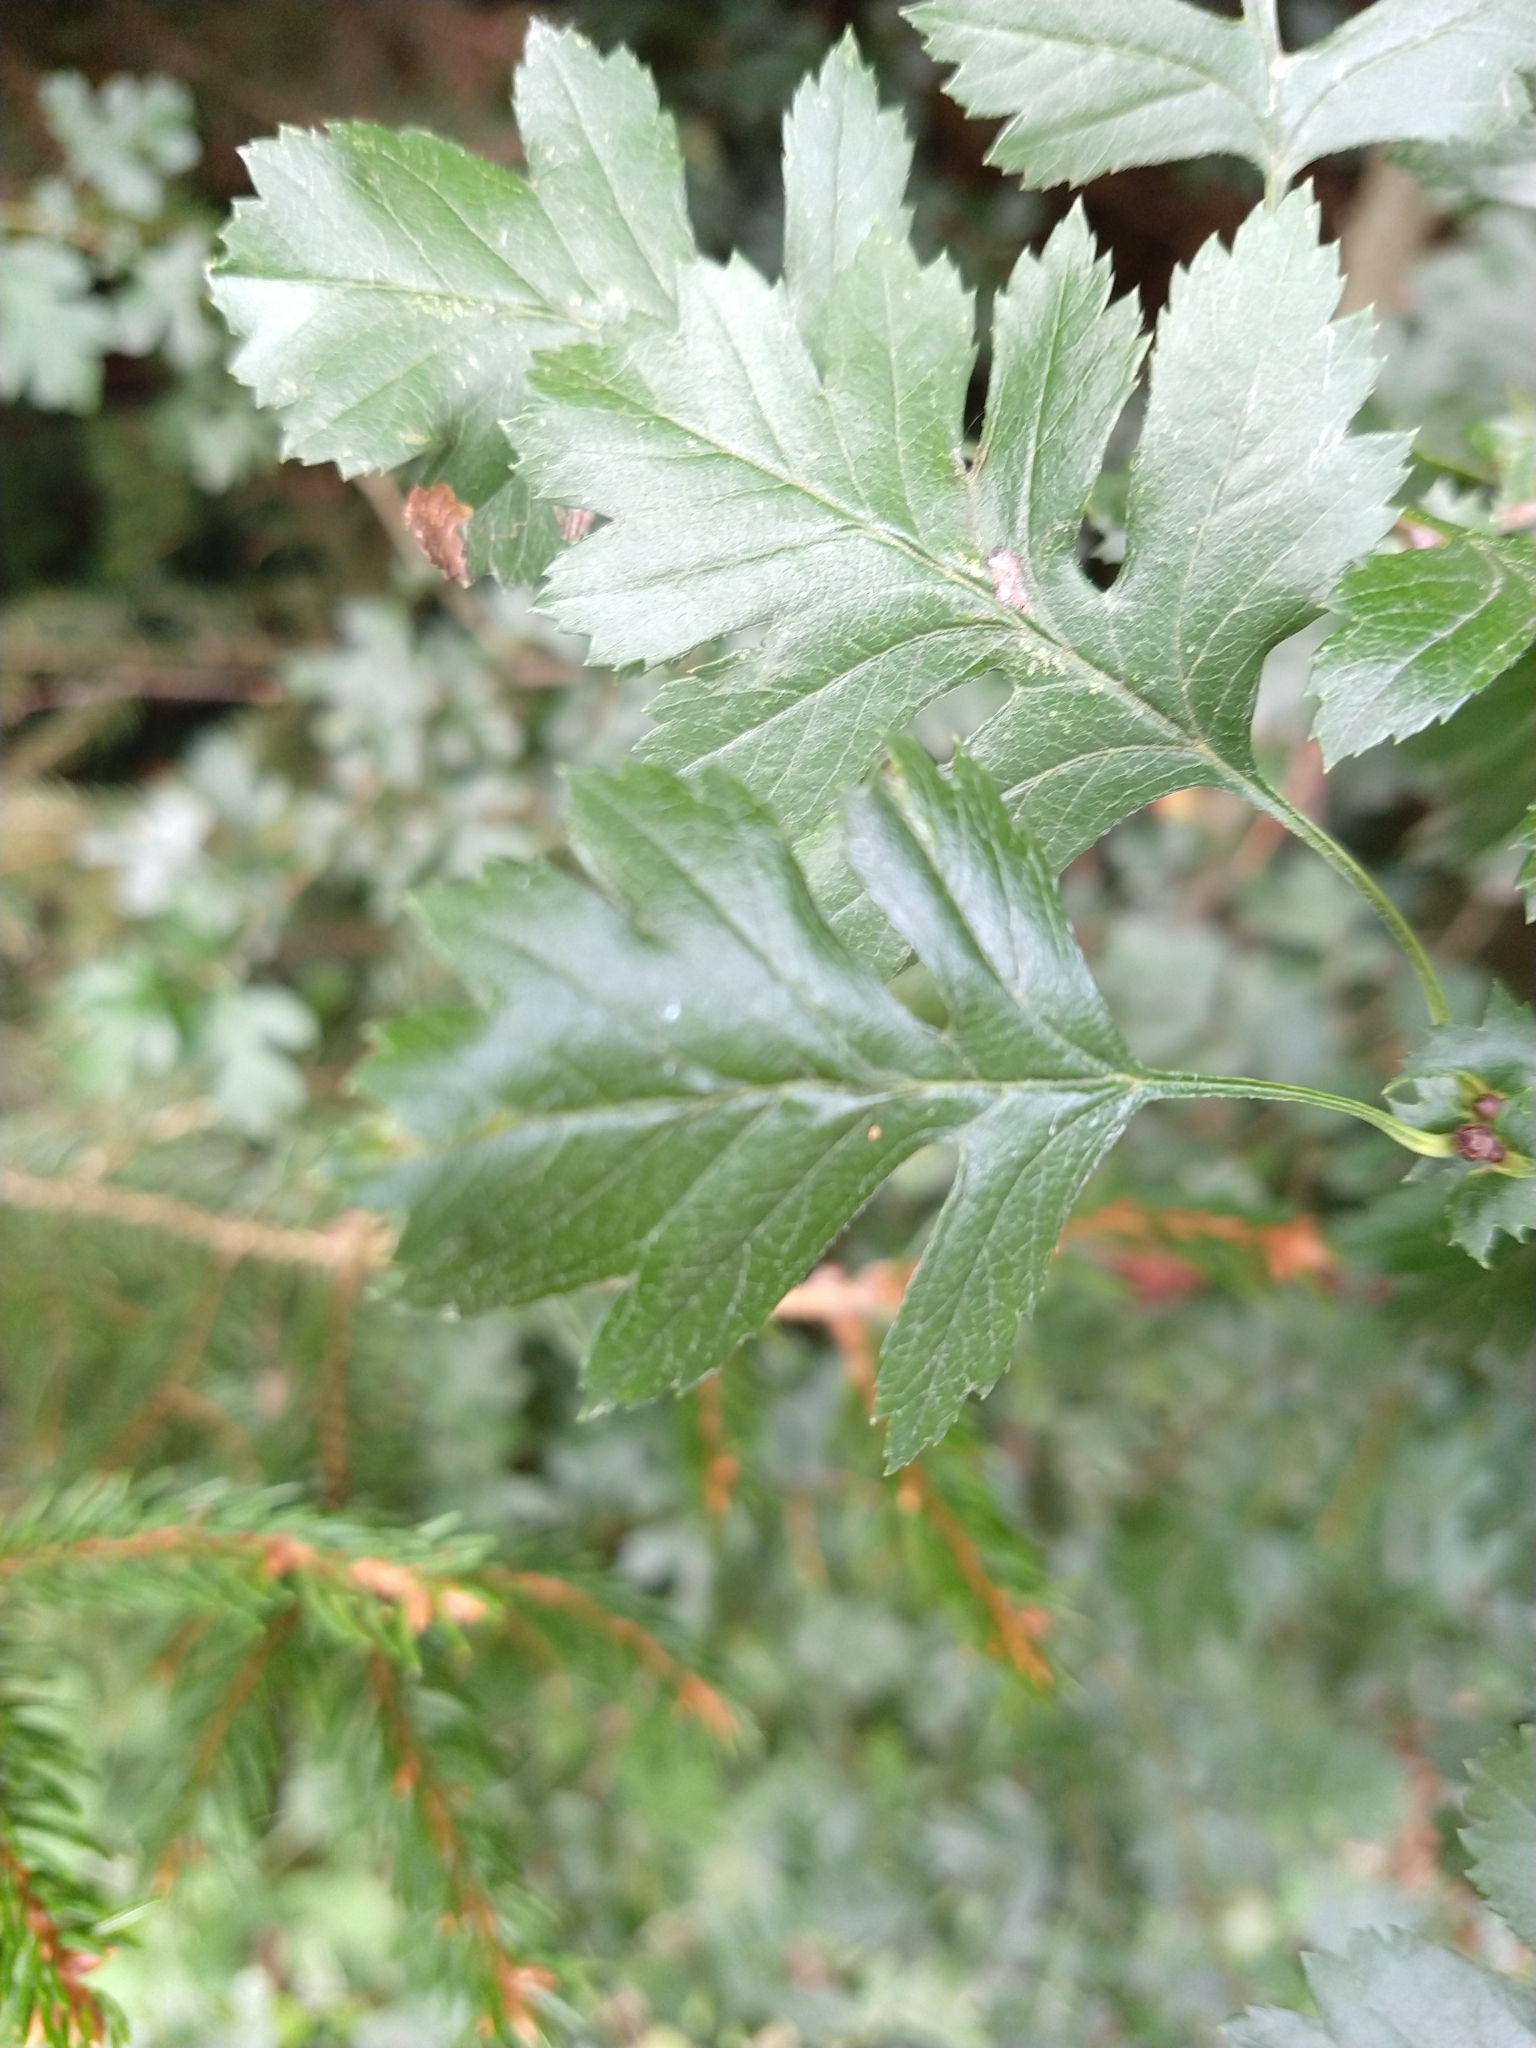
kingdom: Plantae
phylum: Tracheophyta
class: Magnoliopsida
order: Rosales
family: Rosaceae
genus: Crataegus
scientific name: Crataegus monogyna
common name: Hawthorn
